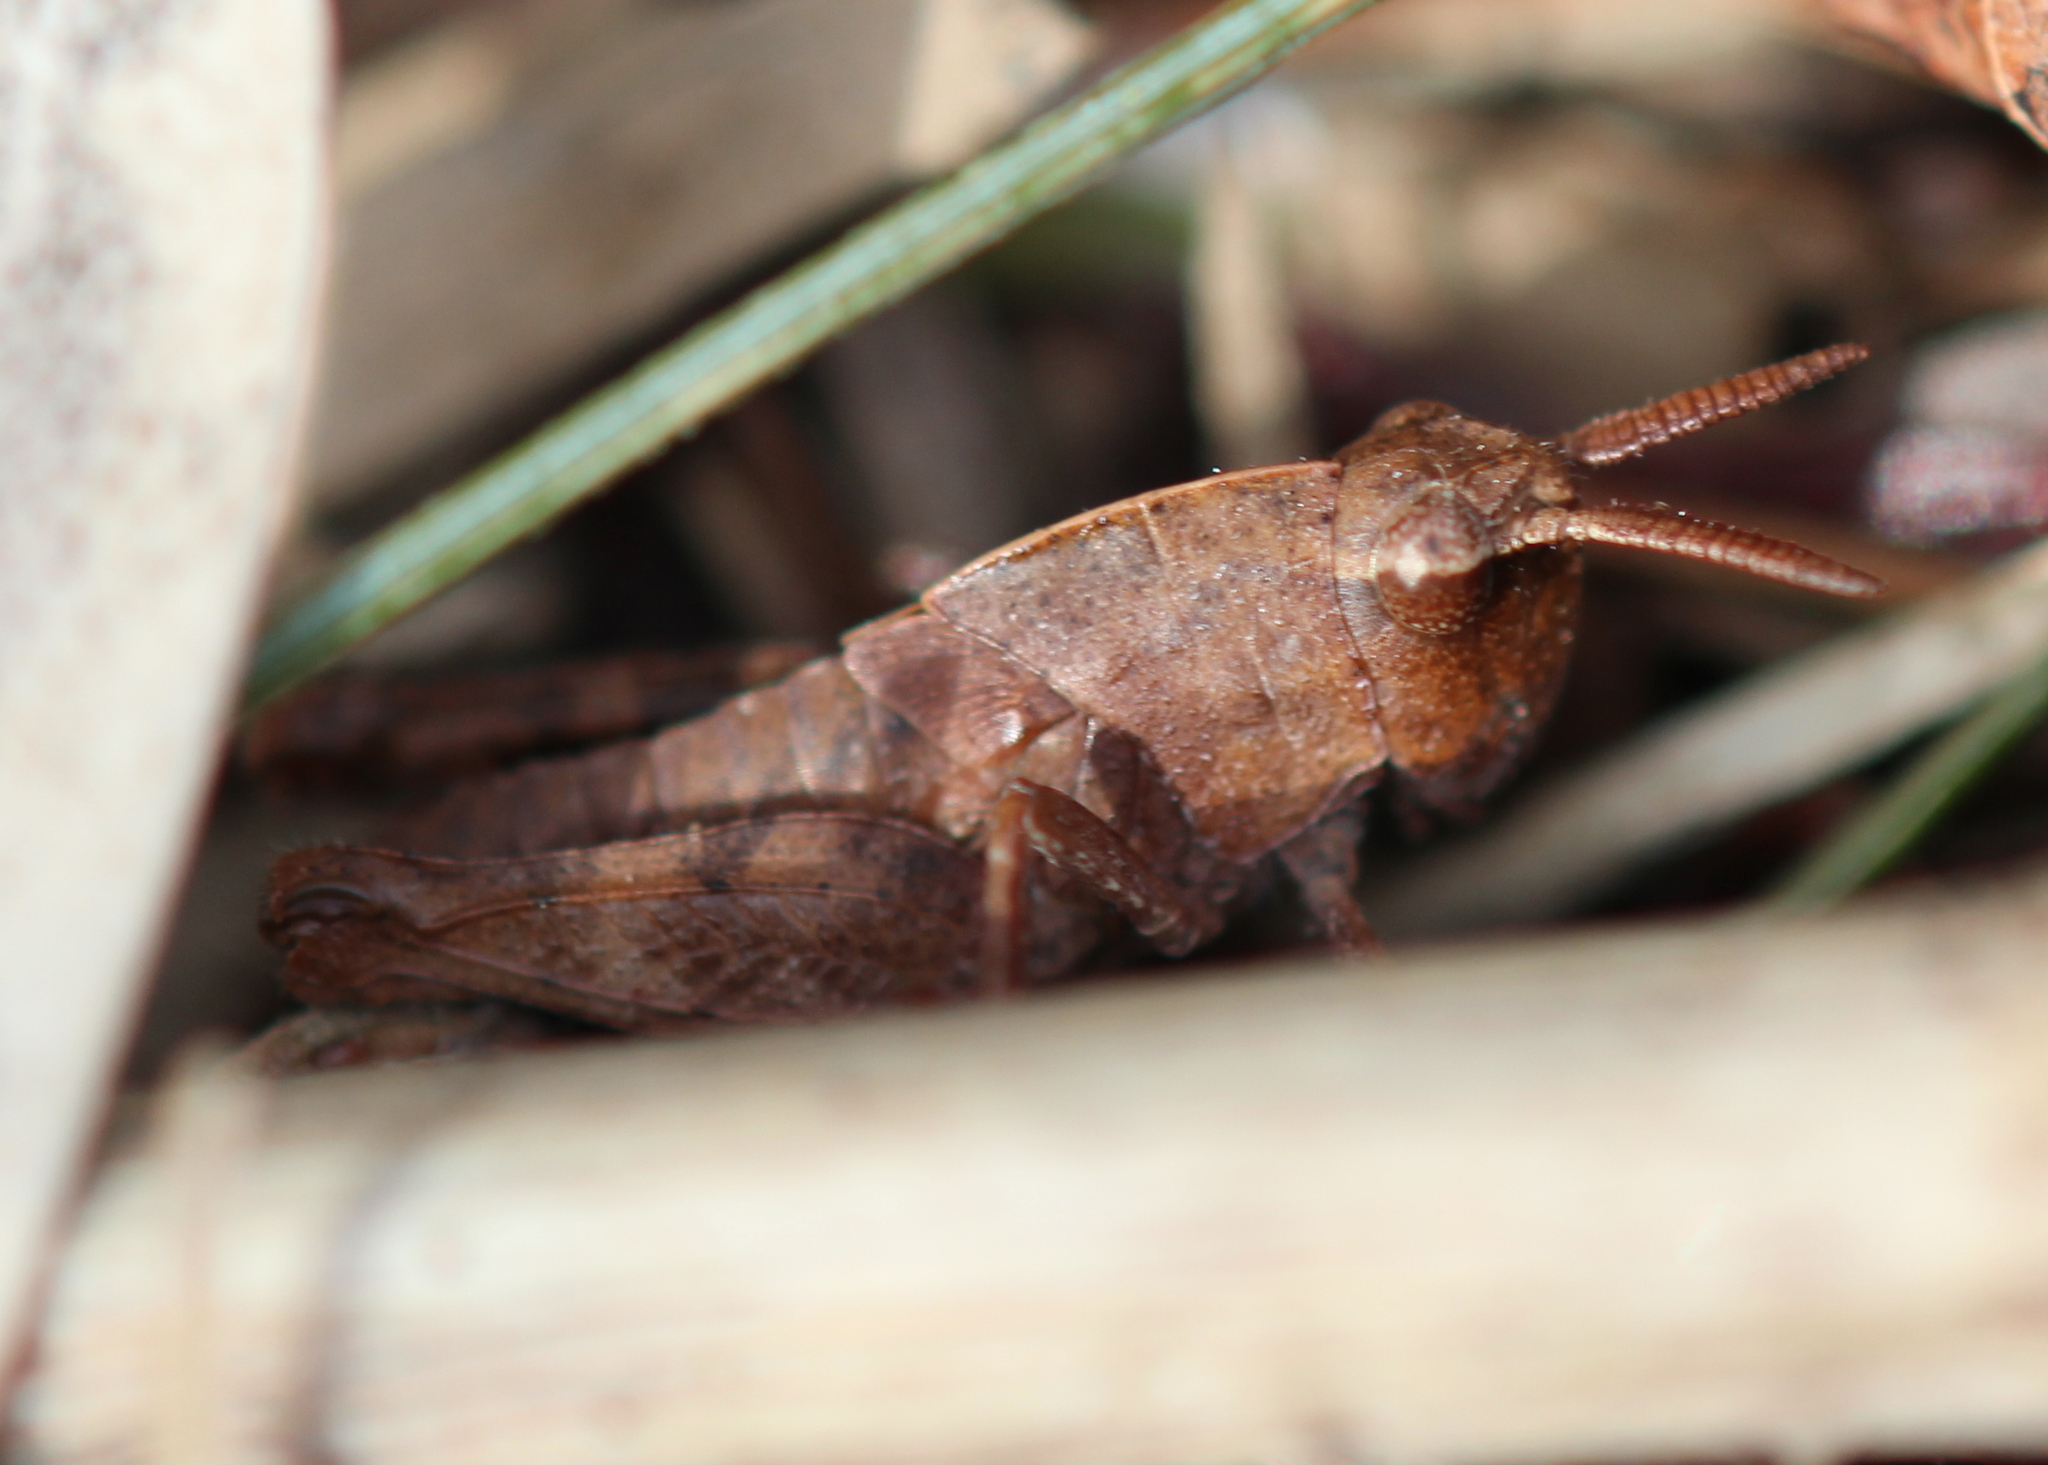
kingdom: Animalia
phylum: Arthropoda
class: Insecta
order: Orthoptera
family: Acrididae
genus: Chortophaga
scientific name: Chortophaga viridifasciata
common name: Green-striped grasshopper
